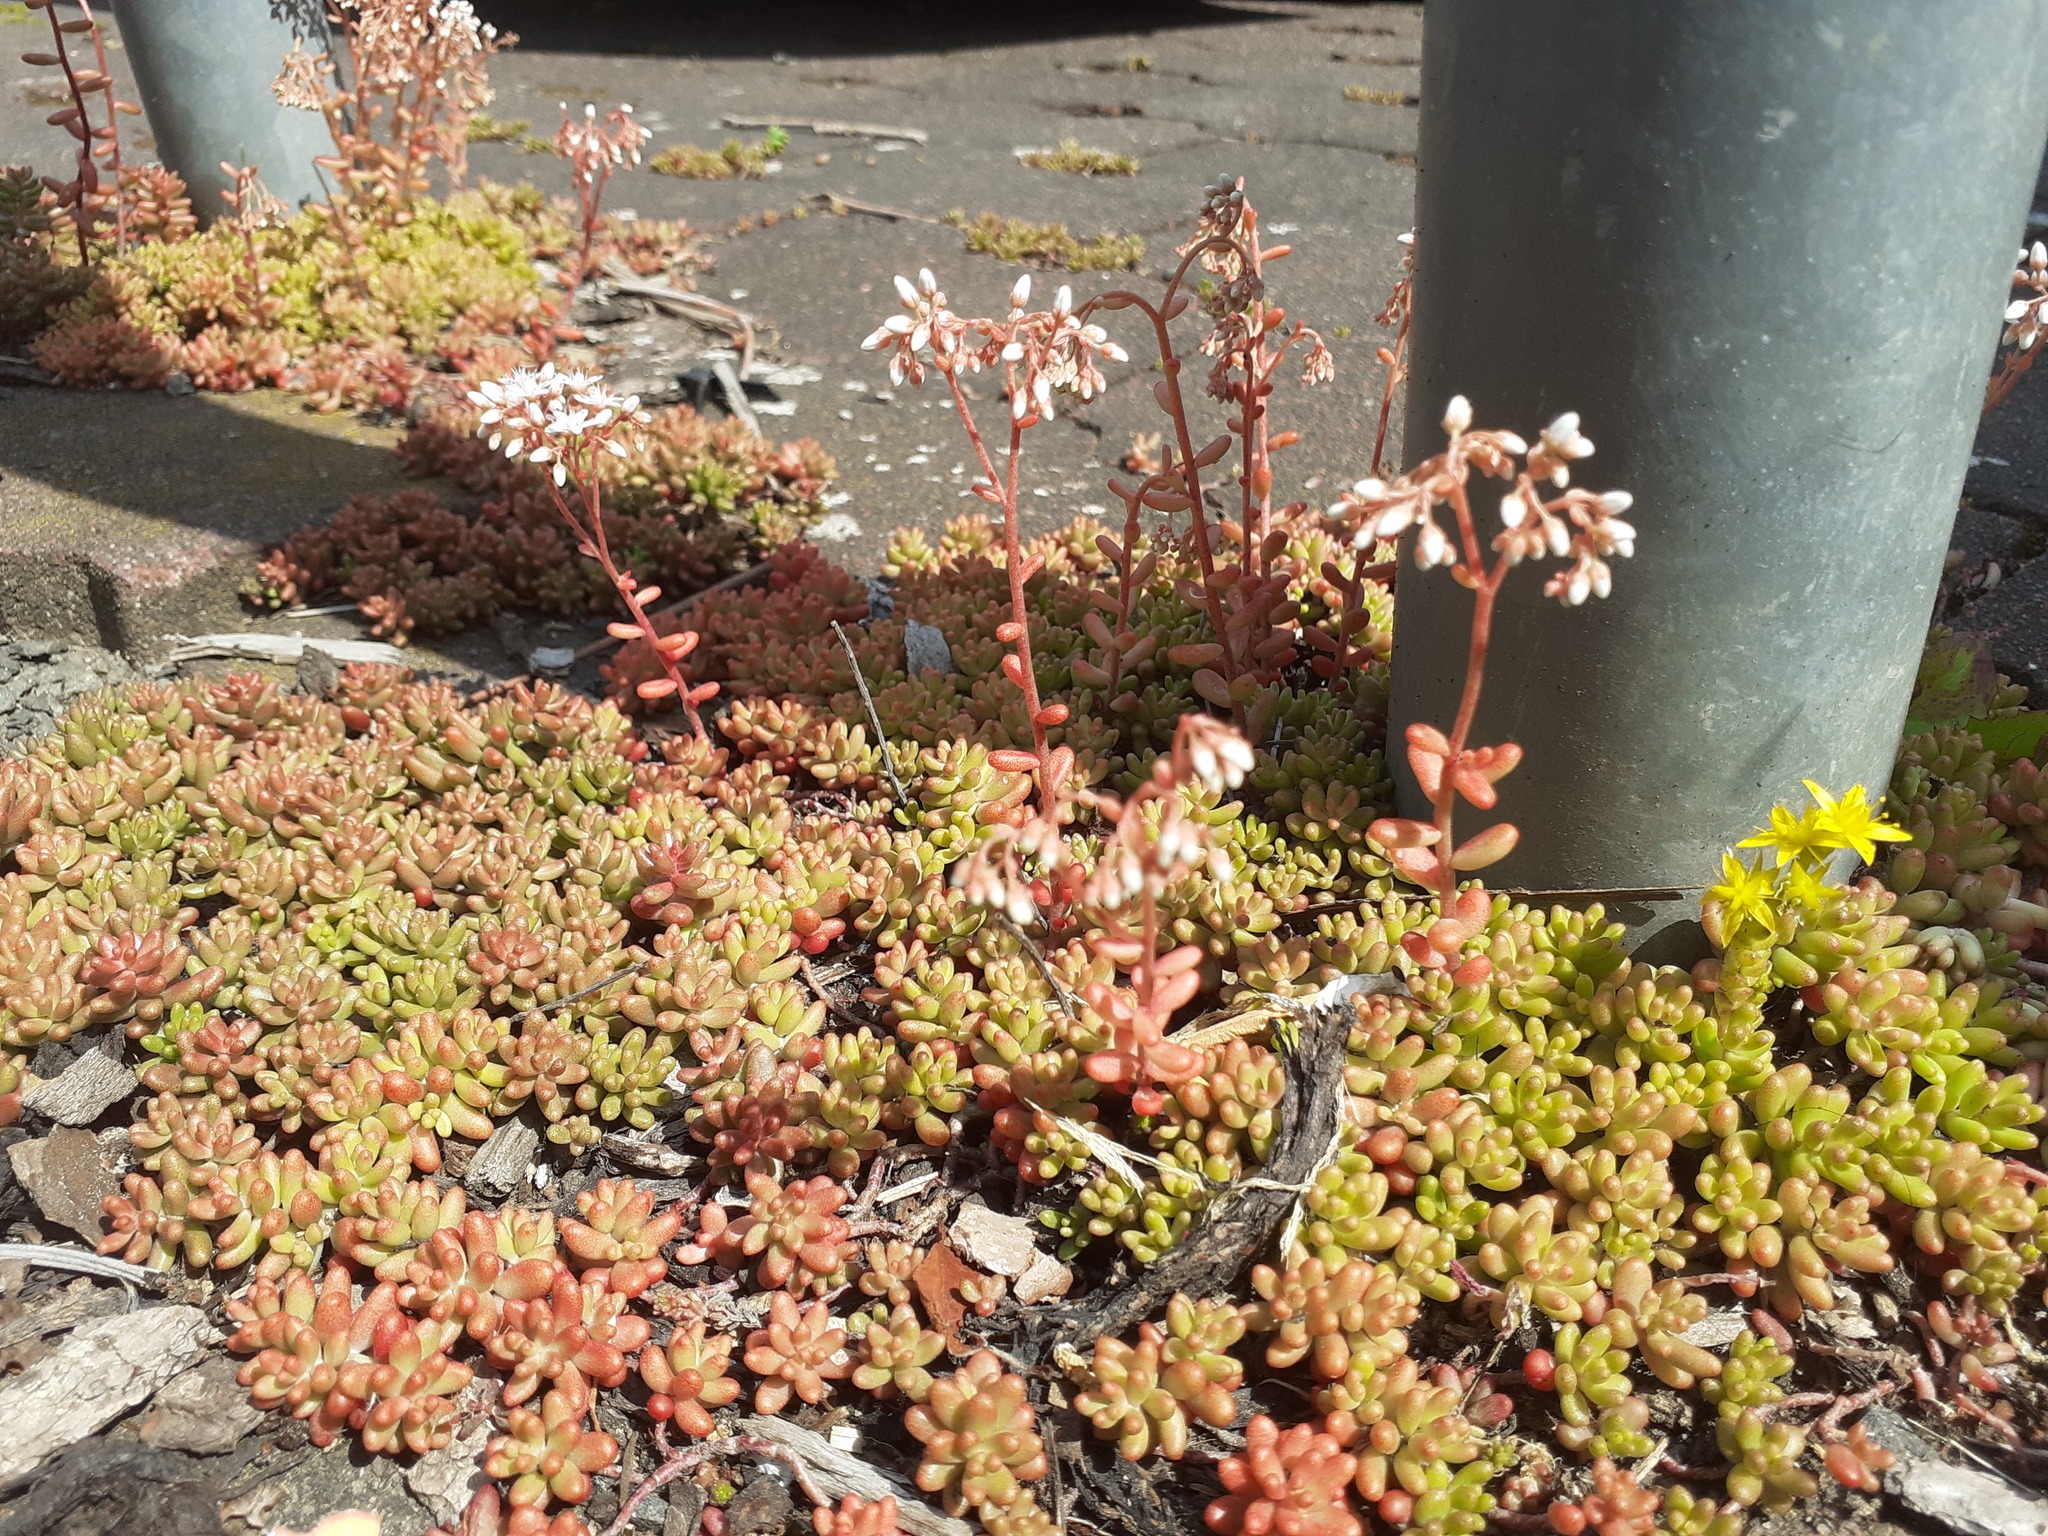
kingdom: Plantae
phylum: Tracheophyta
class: Magnoliopsida
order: Saxifragales
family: Crassulaceae
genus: Sedum
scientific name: Sedum album
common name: White stonecrop
